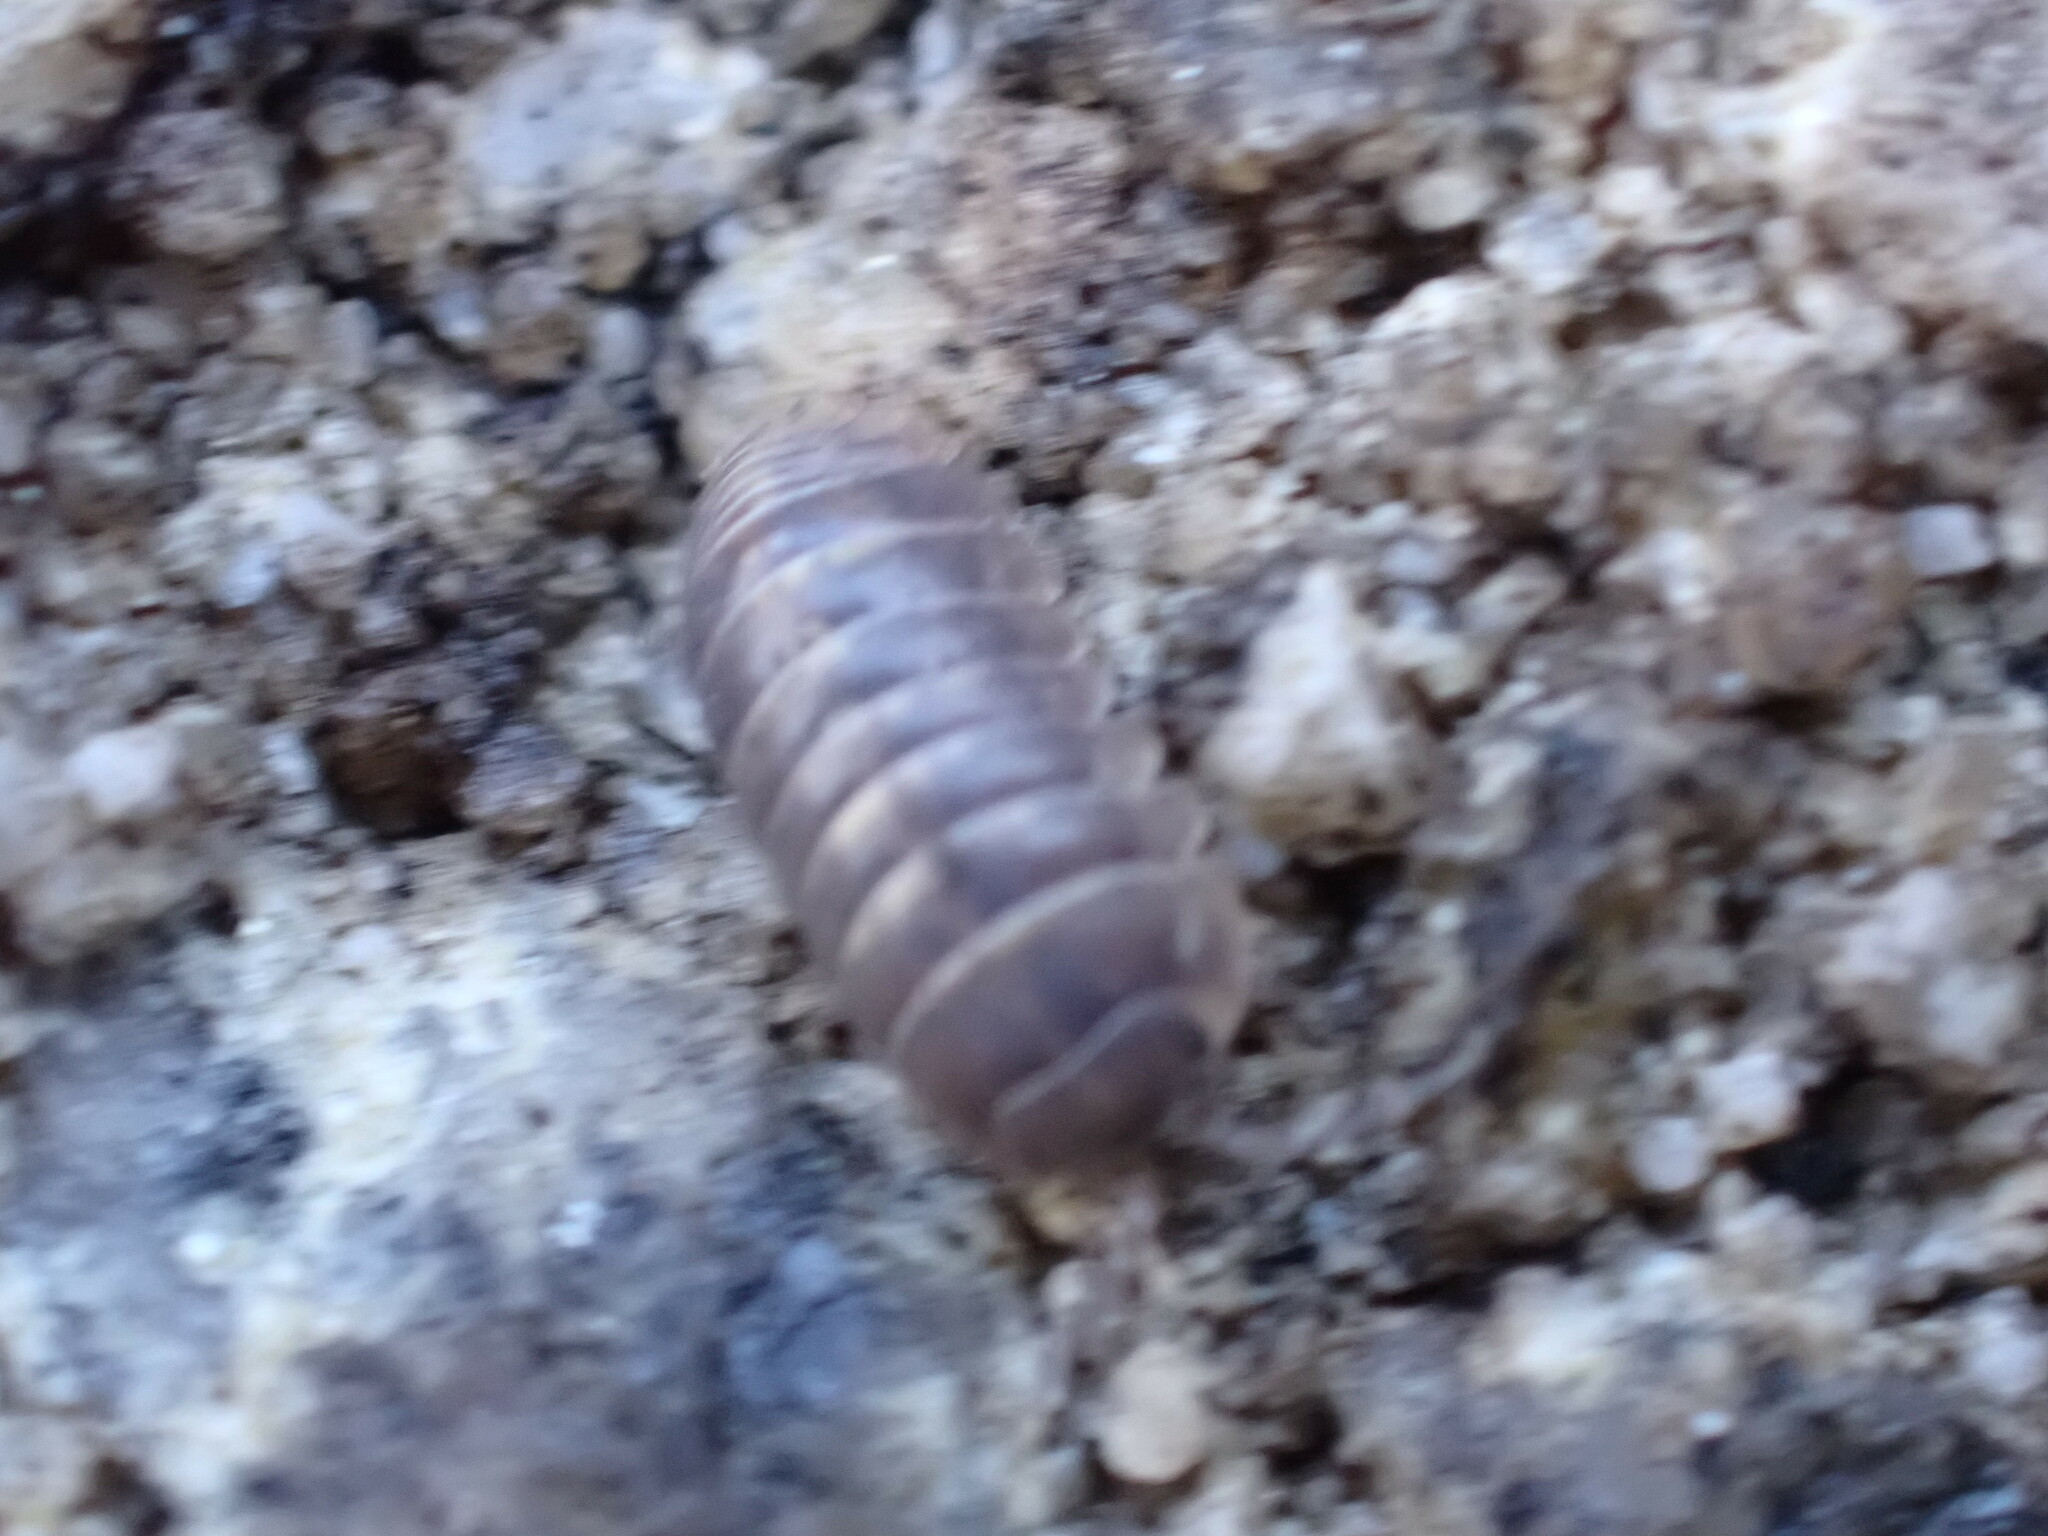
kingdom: Animalia
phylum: Arthropoda
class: Malacostraca
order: Isopoda
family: Armadillidiidae
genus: Armadillidium
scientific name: Armadillidium vulgare
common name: Common pill woodlouse
